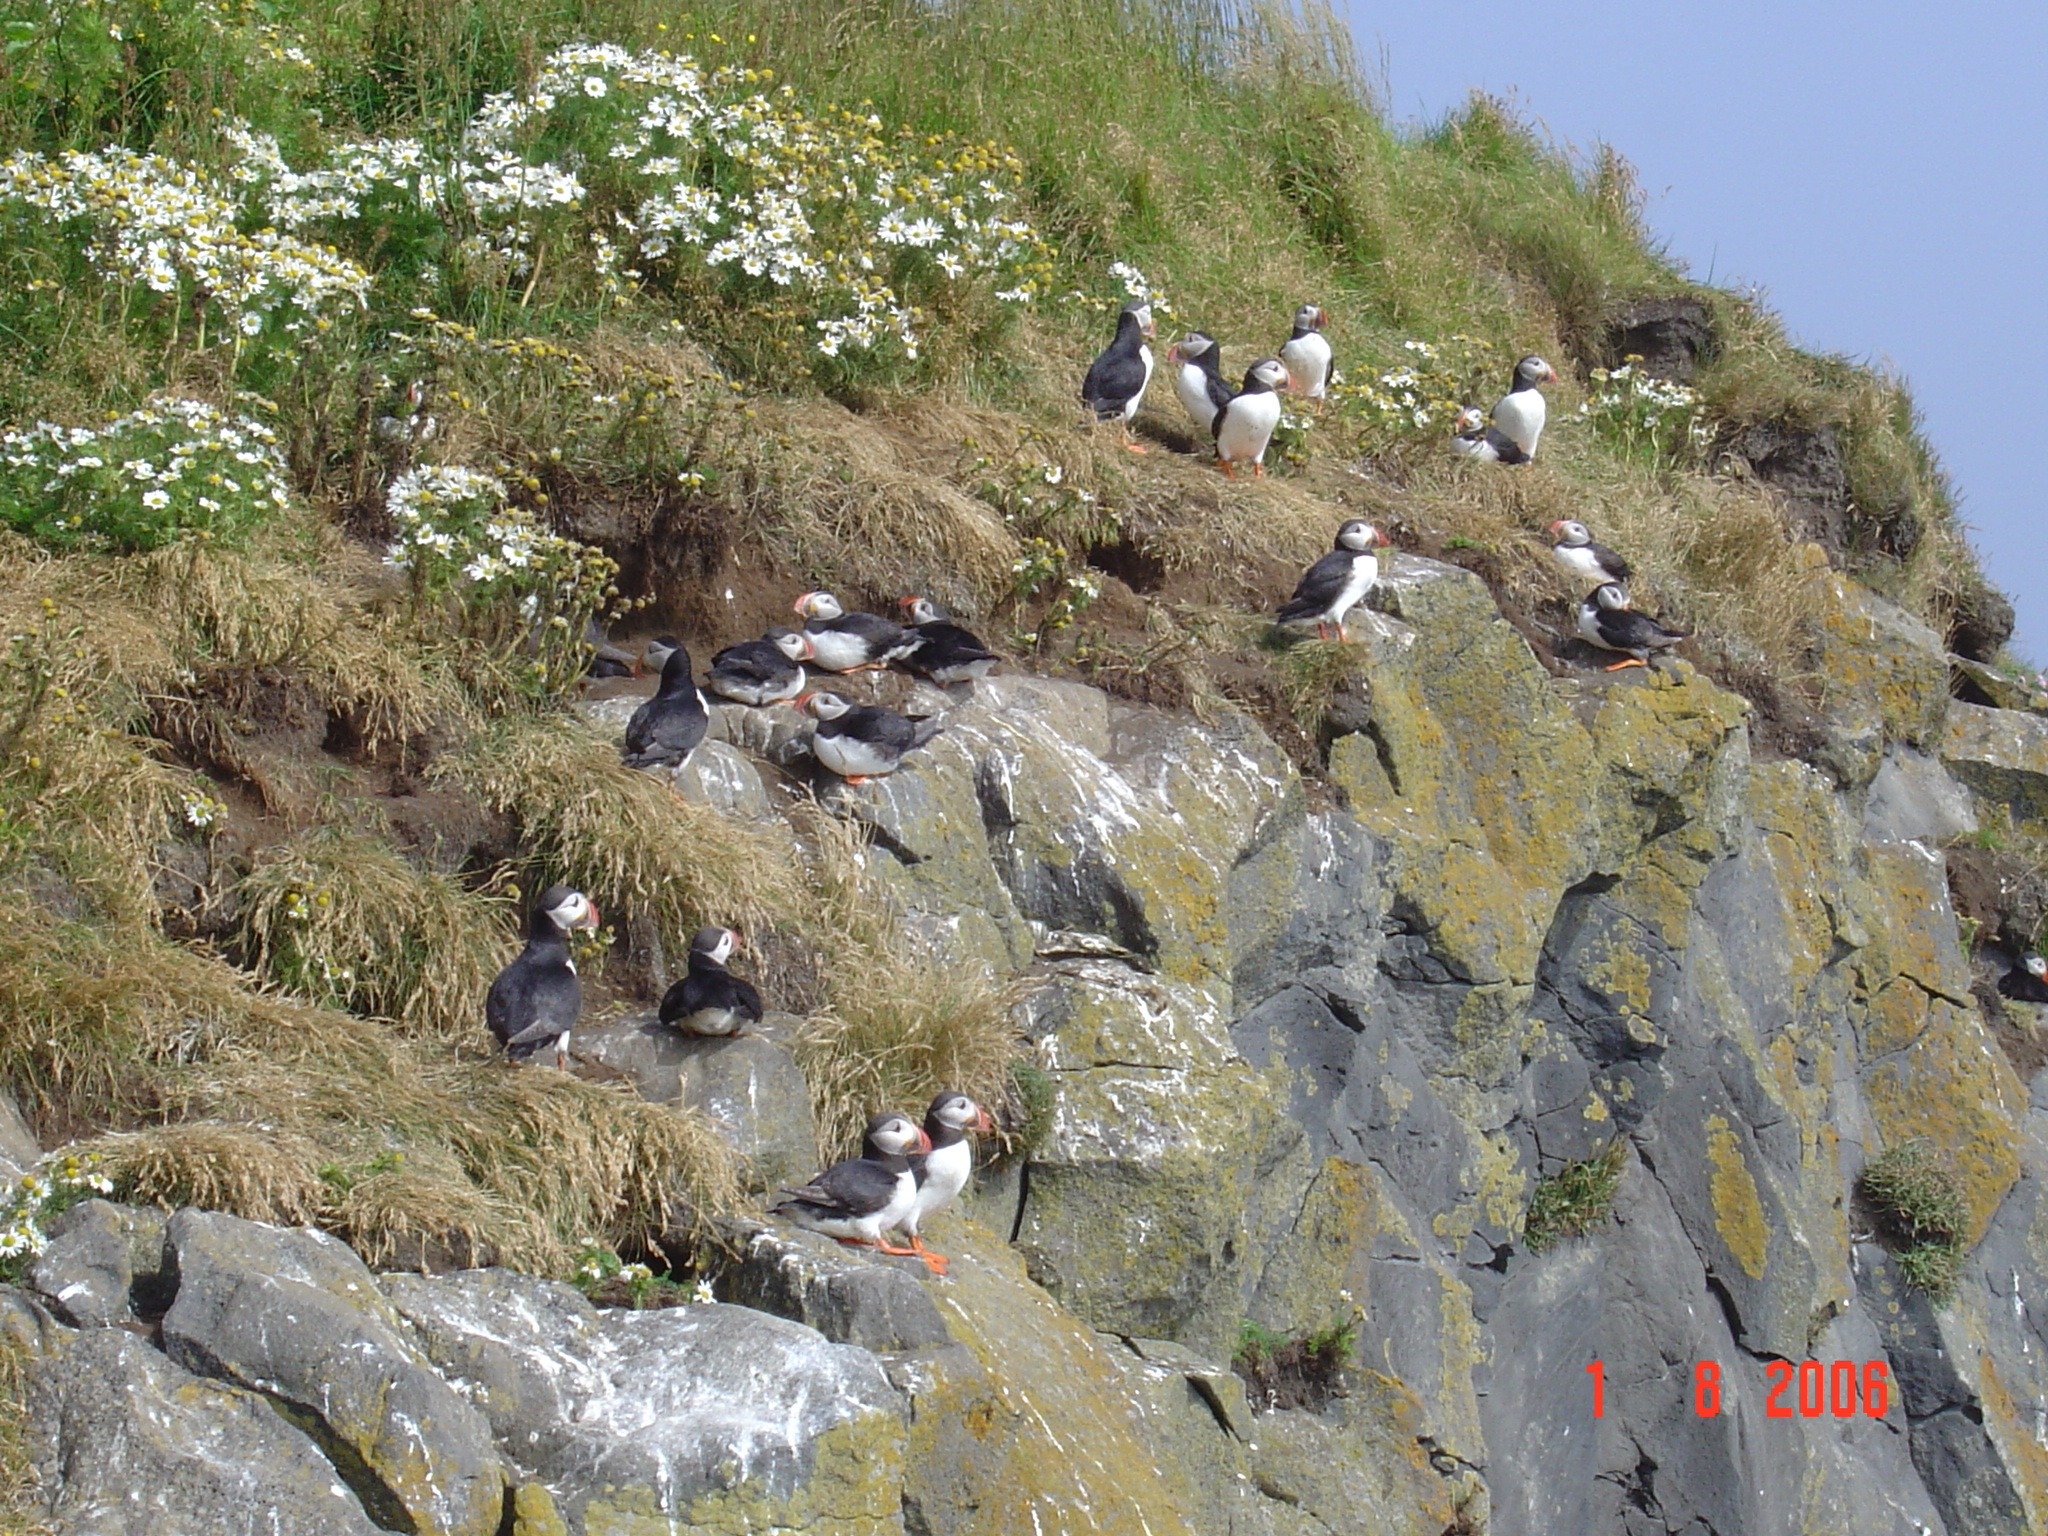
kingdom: Animalia
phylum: Chordata
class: Aves
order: Charadriiformes
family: Alcidae
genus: Fratercula
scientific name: Fratercula arctica
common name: Atlantic puffin
